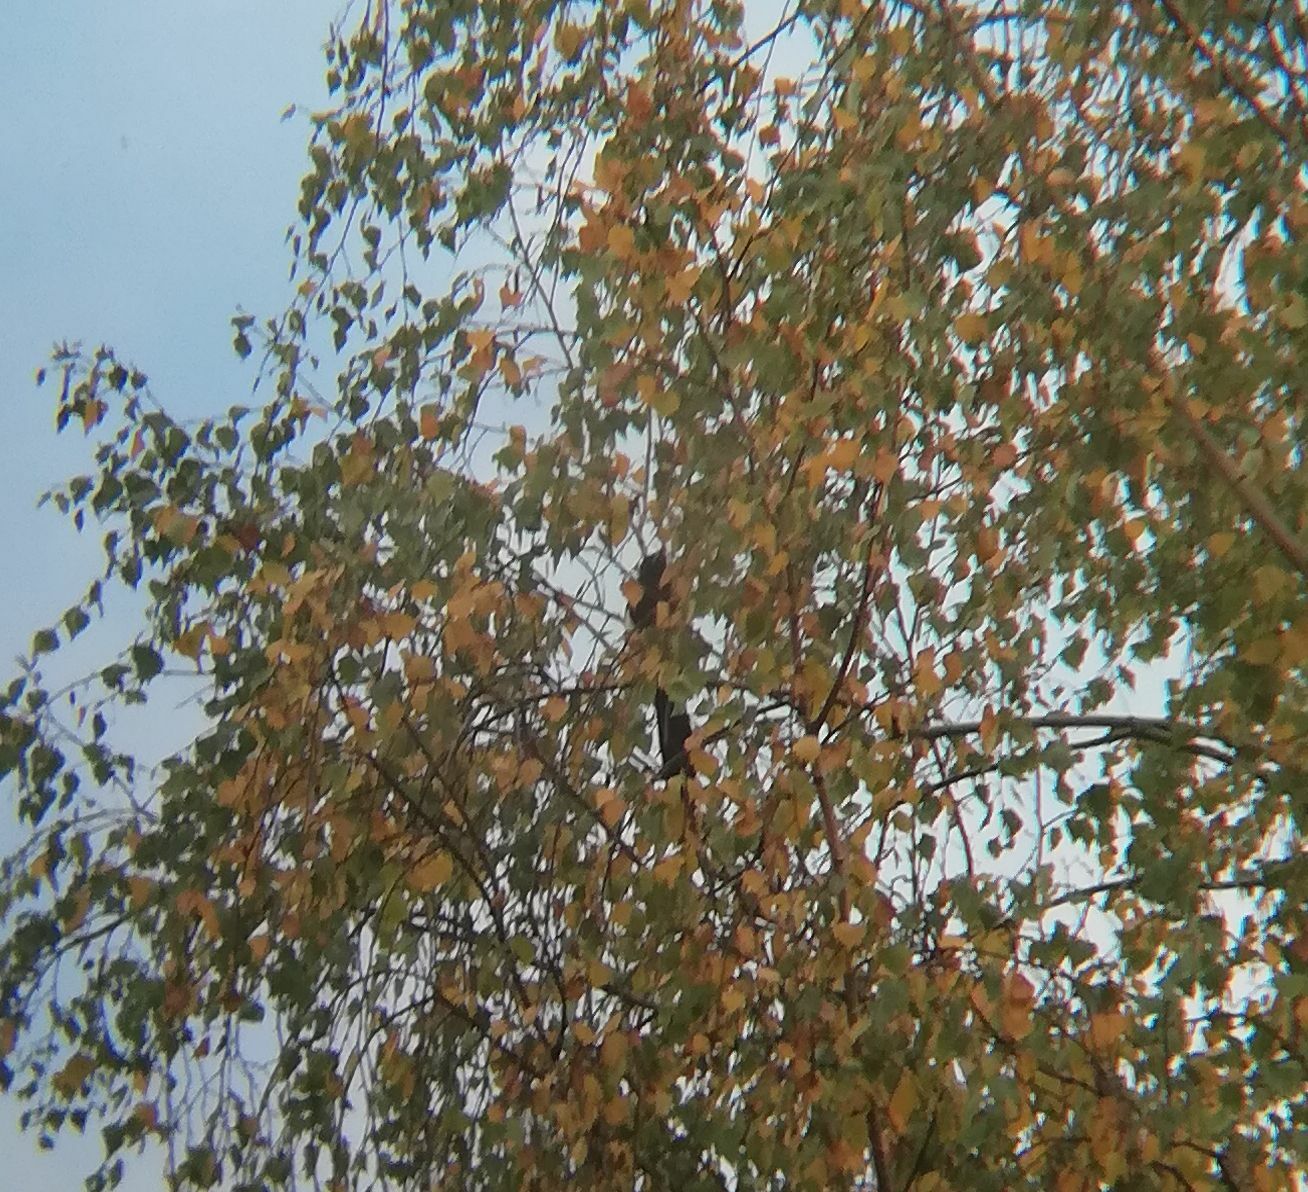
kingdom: Animalia
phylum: Chordata
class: Aves
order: Passeriformes
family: Corvidae
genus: Pica
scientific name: Pica pica
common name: Eurasian magpie
